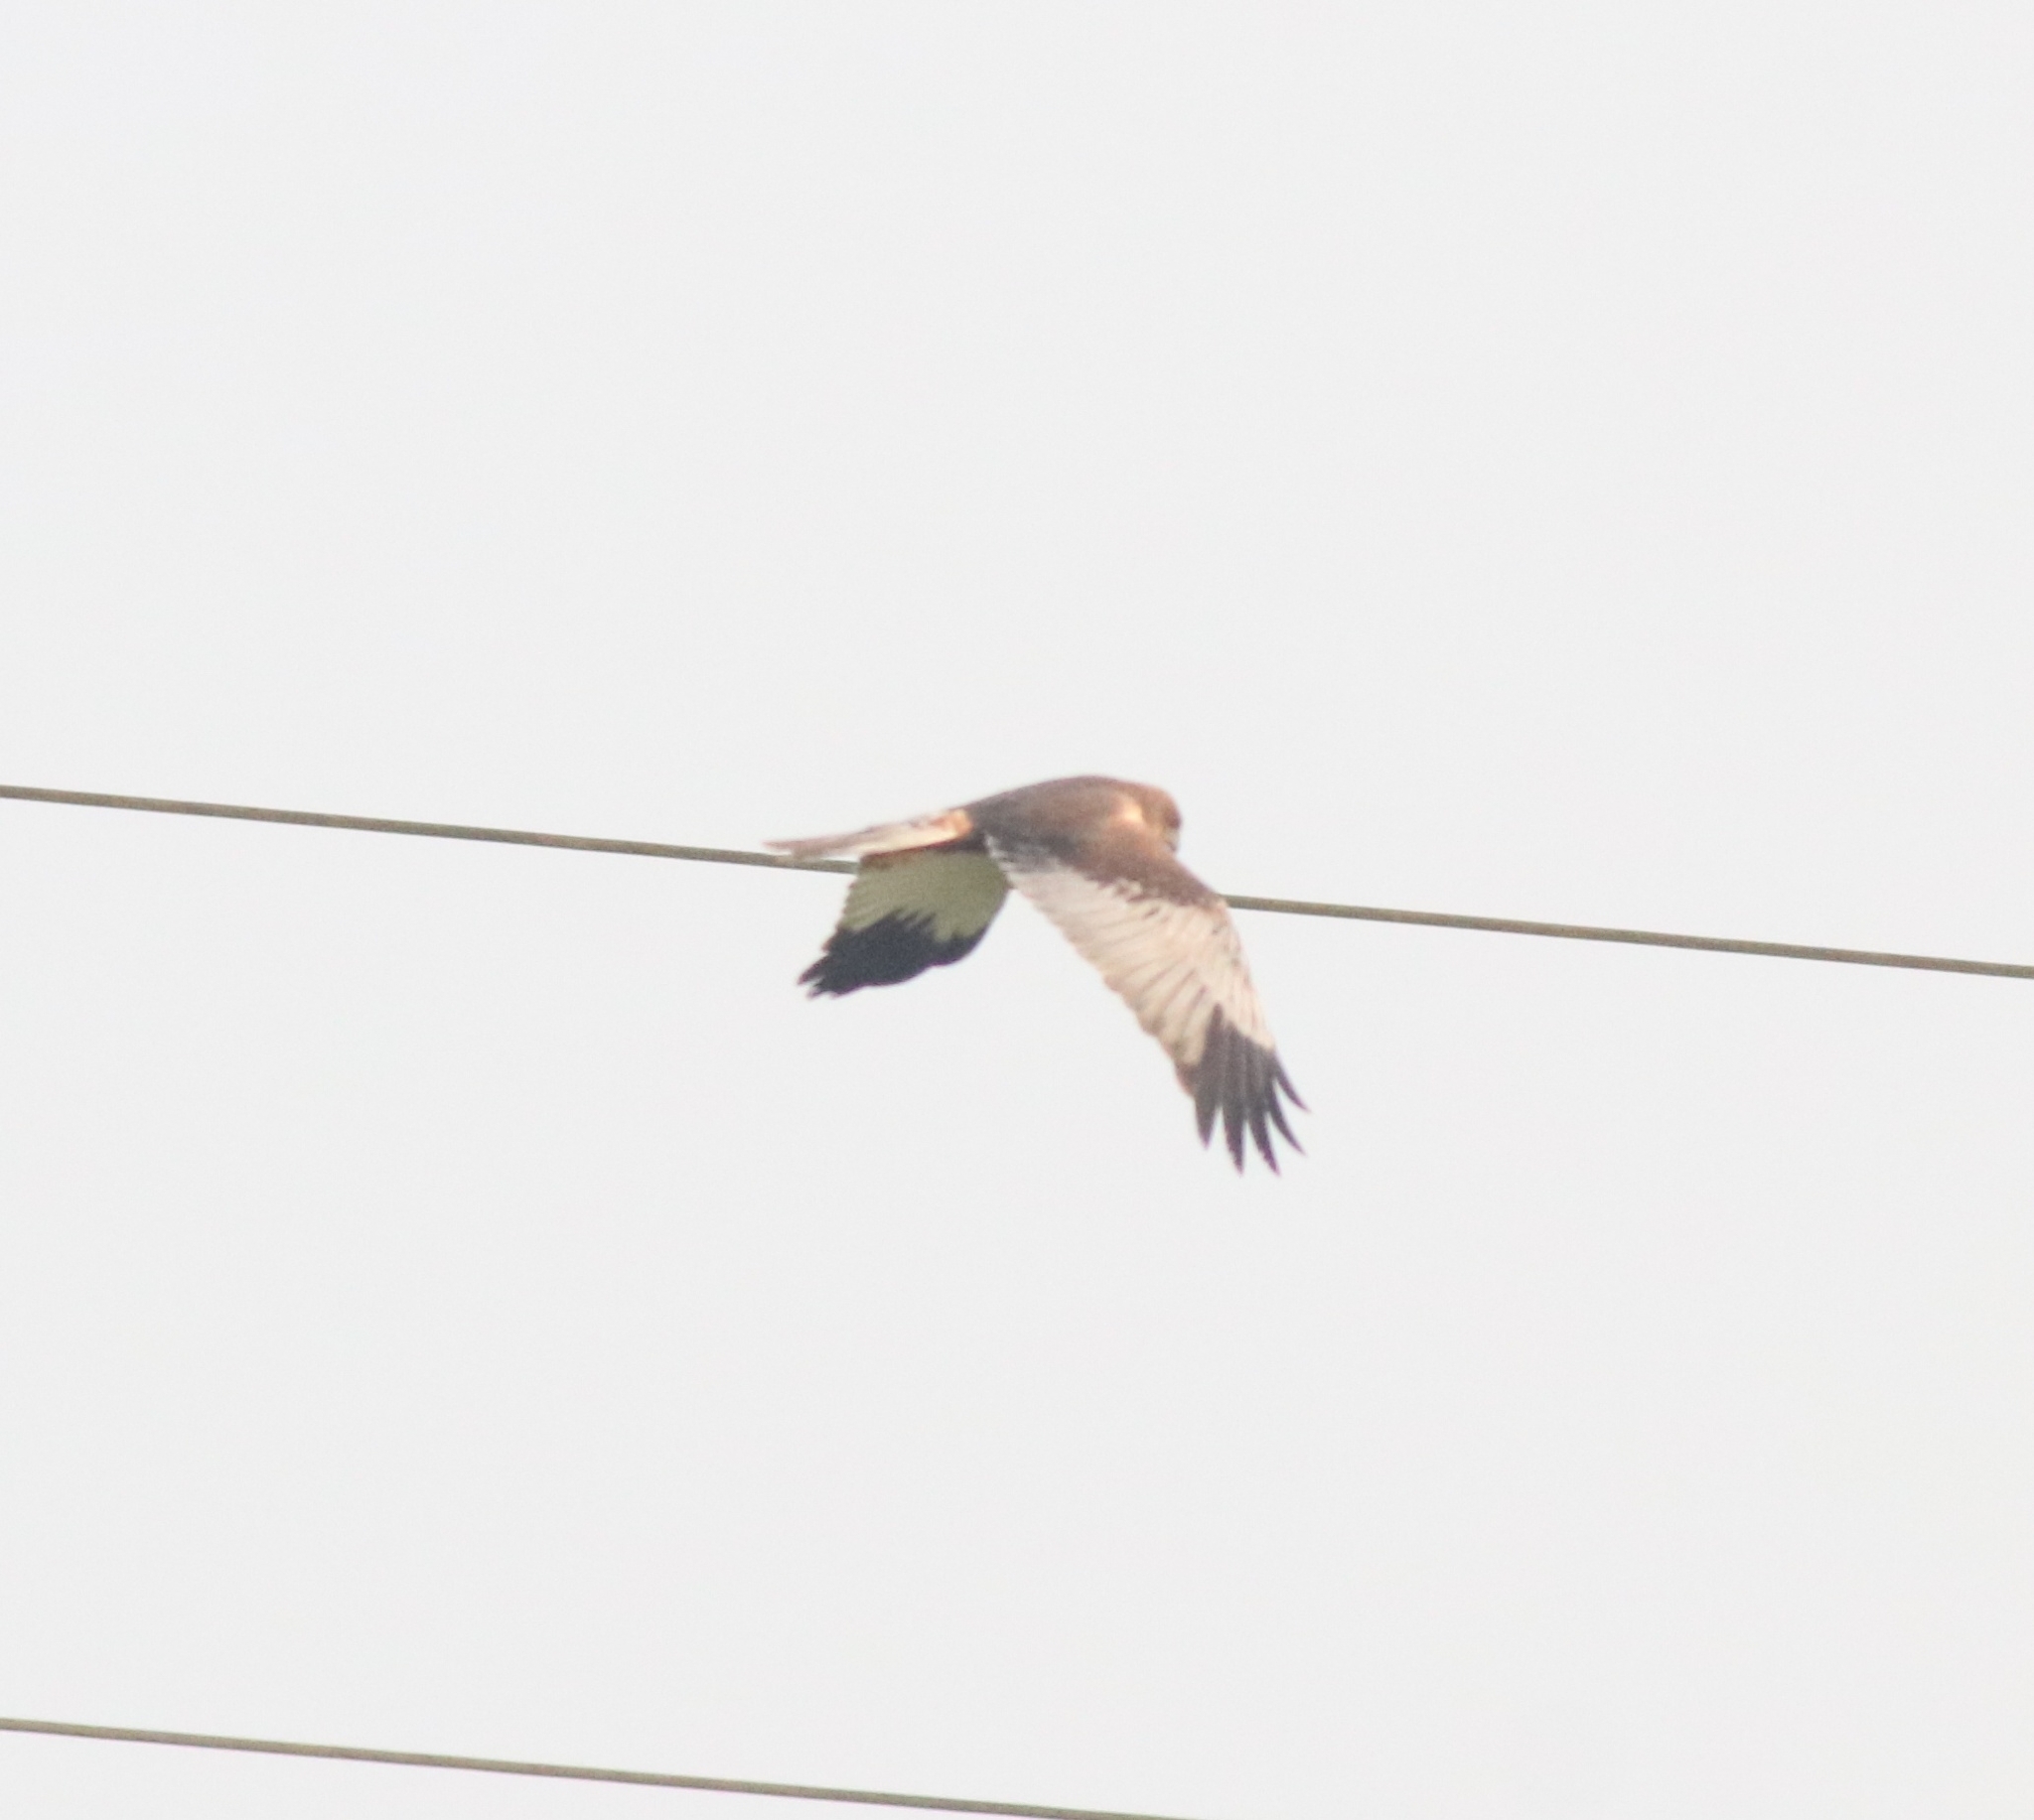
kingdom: Animalia
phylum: Chordata
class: Aves
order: Accipitriformes
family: Accipitridae
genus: Circus
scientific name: Circus aeruginosus
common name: Western marsh harrier
